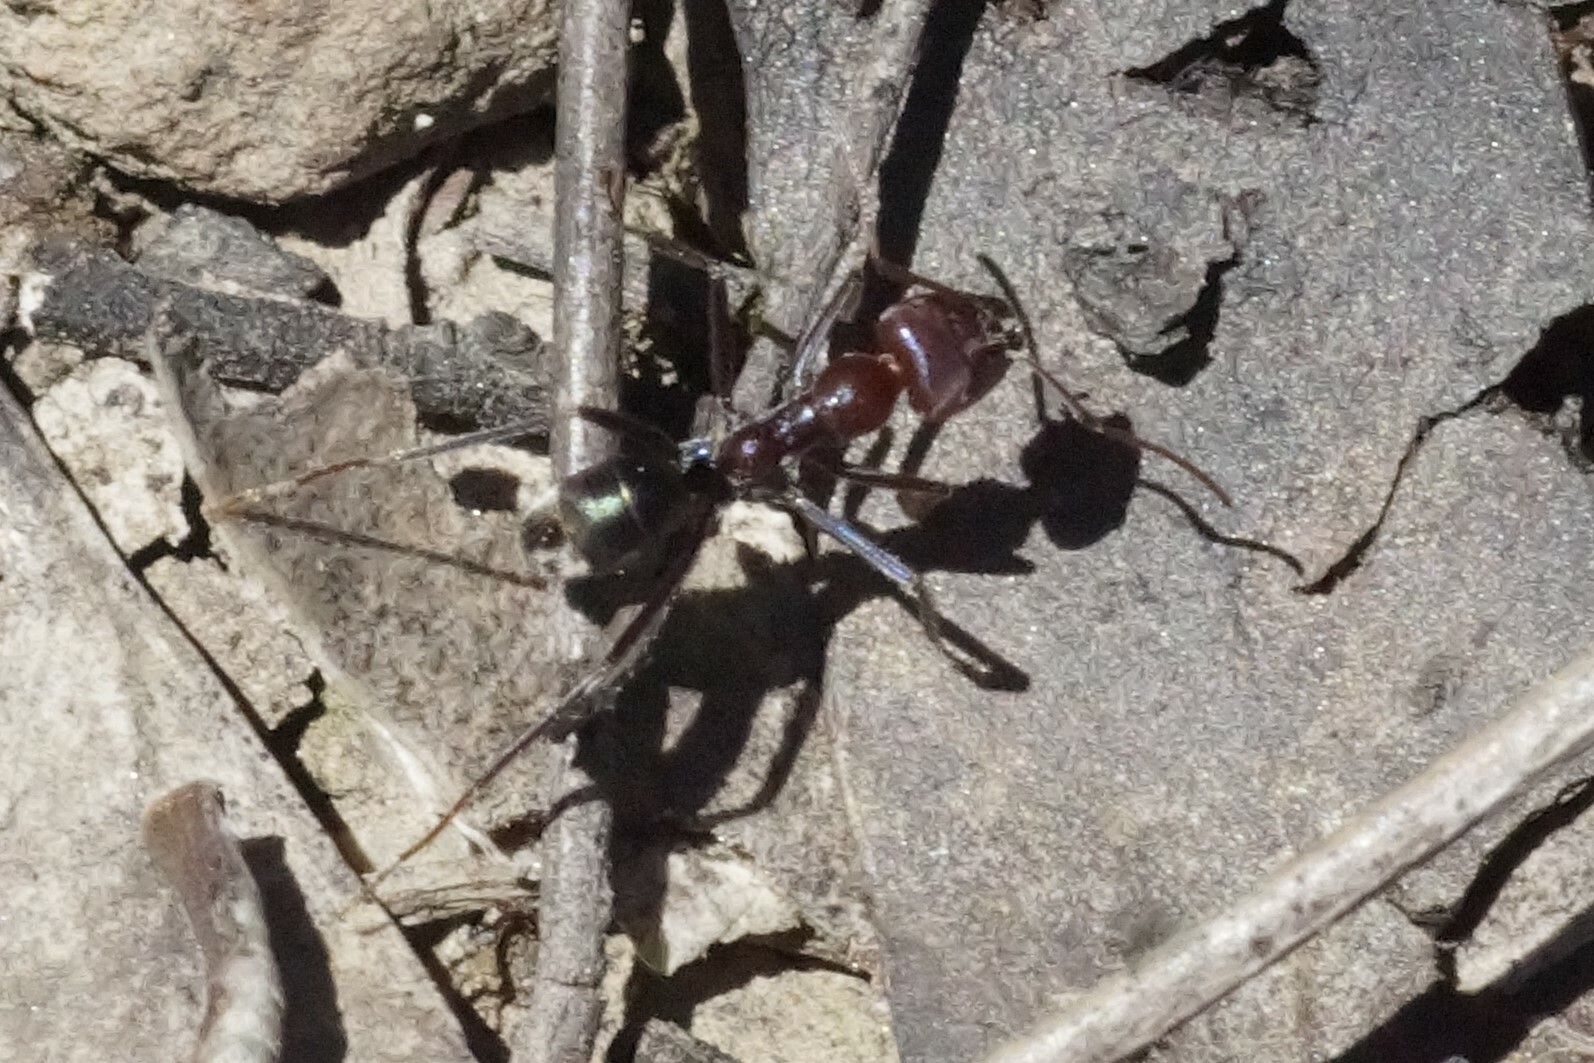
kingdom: Animalia
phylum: Arthropoda
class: Insecta
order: Hymenoptera
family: Formicidae
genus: Iridomyrmex
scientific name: Iridomyrmex purpureus
